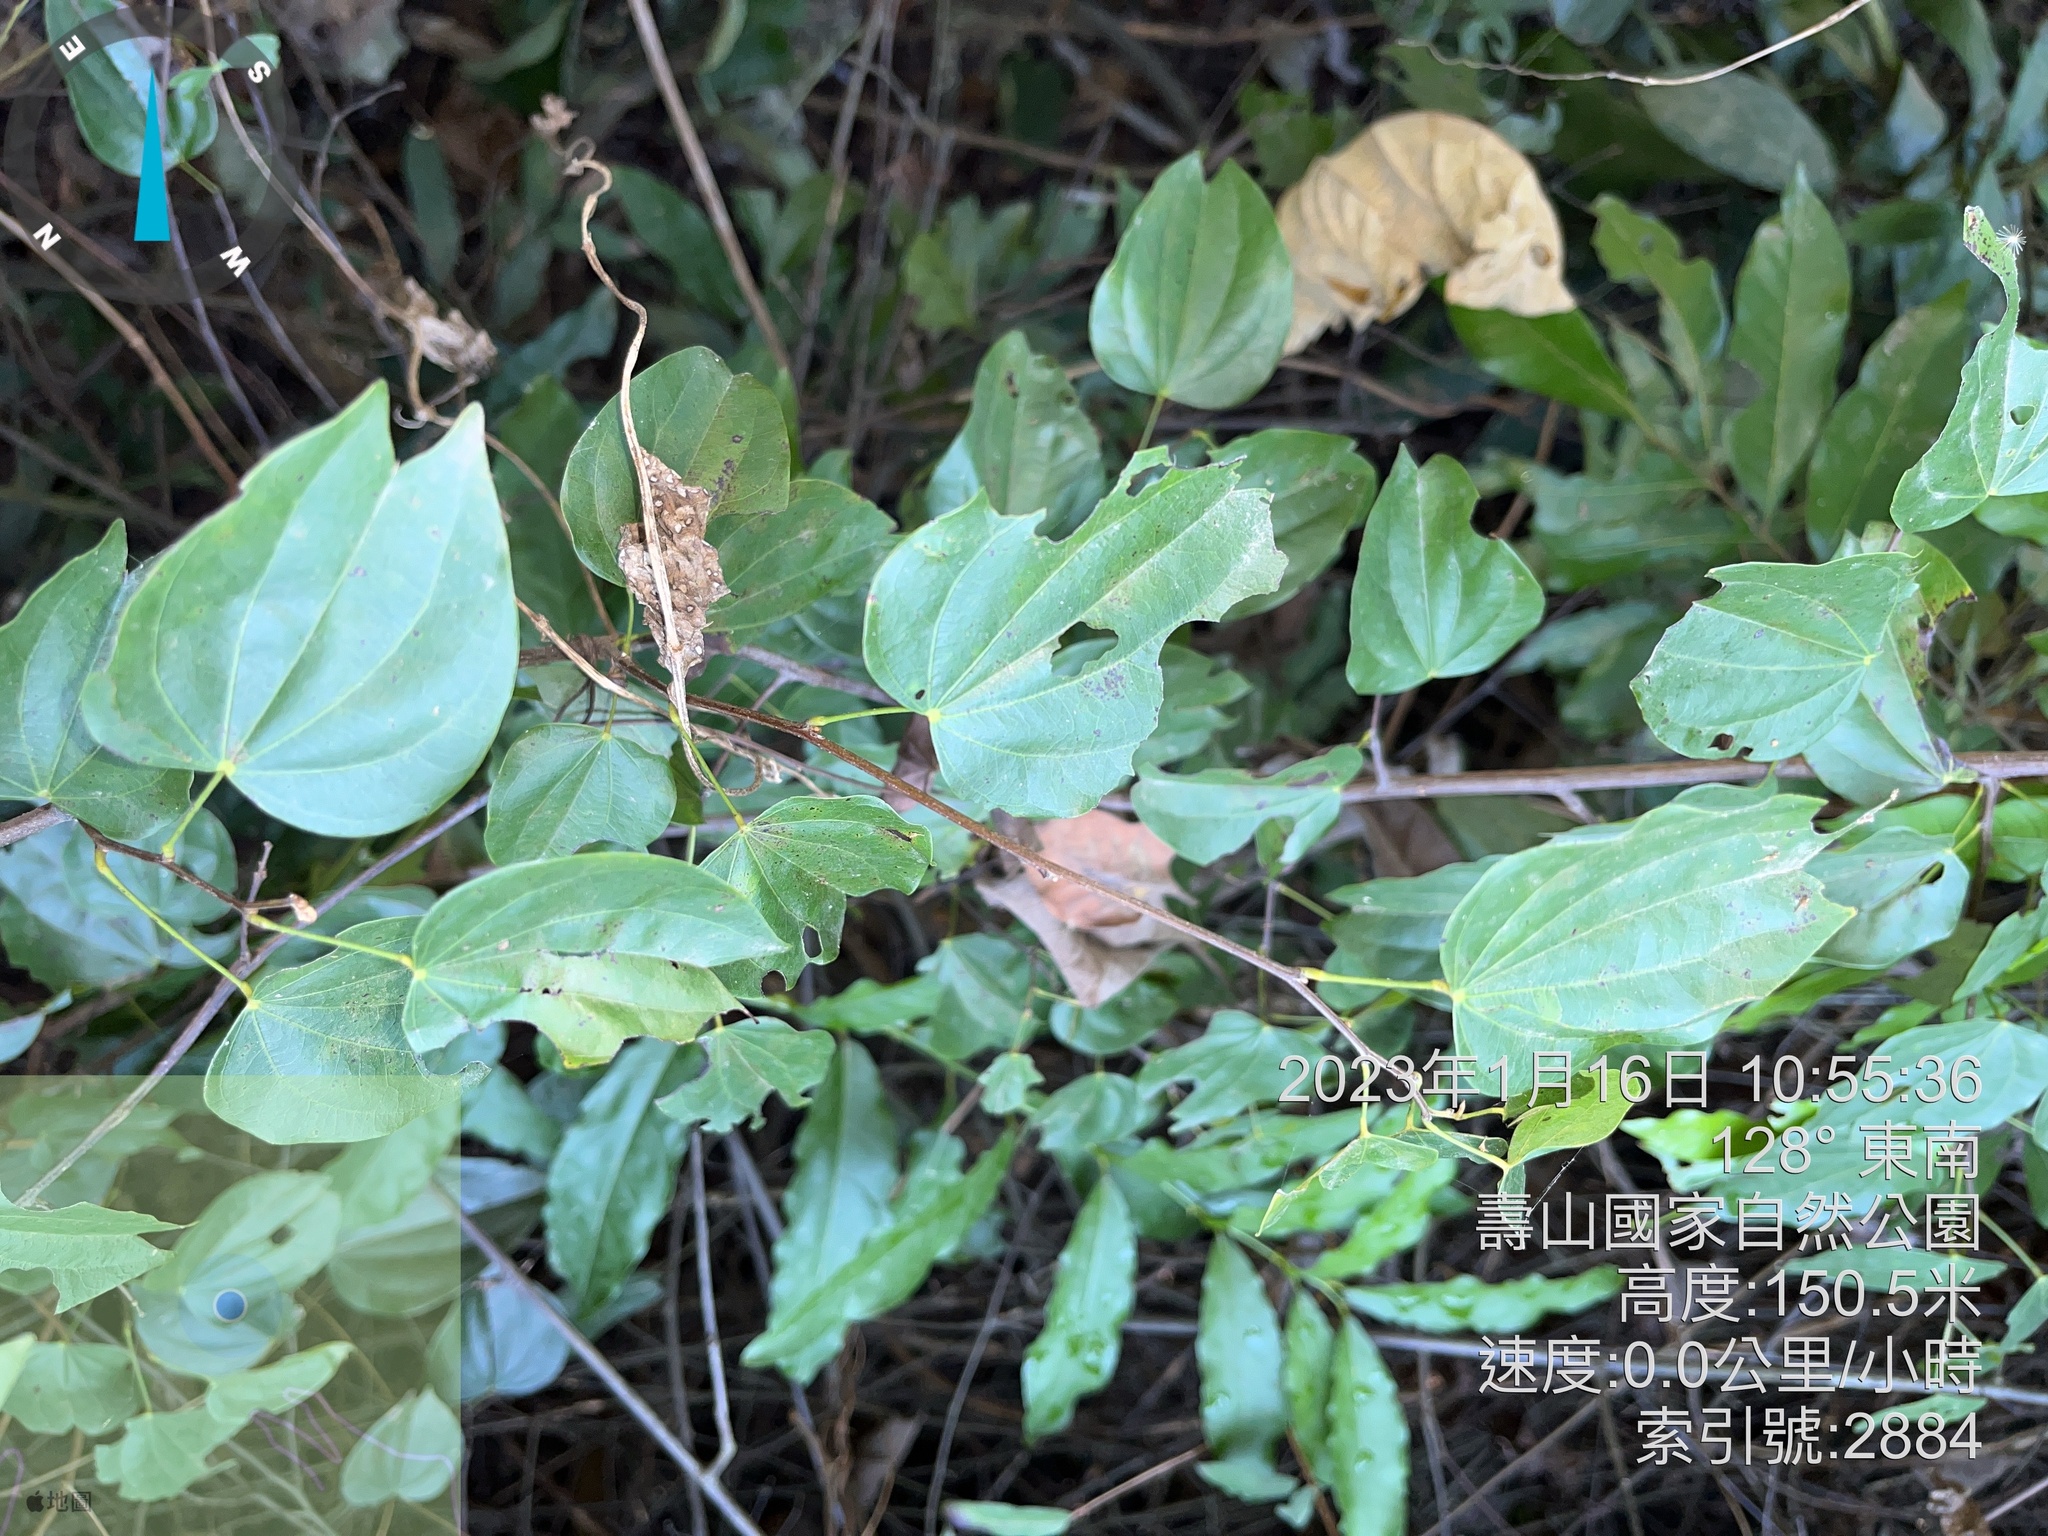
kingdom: Plantae
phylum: Tracheophyta
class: Magnoliopsida
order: Fabales
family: Fabaceae
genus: Phanera
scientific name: Phanera championii
